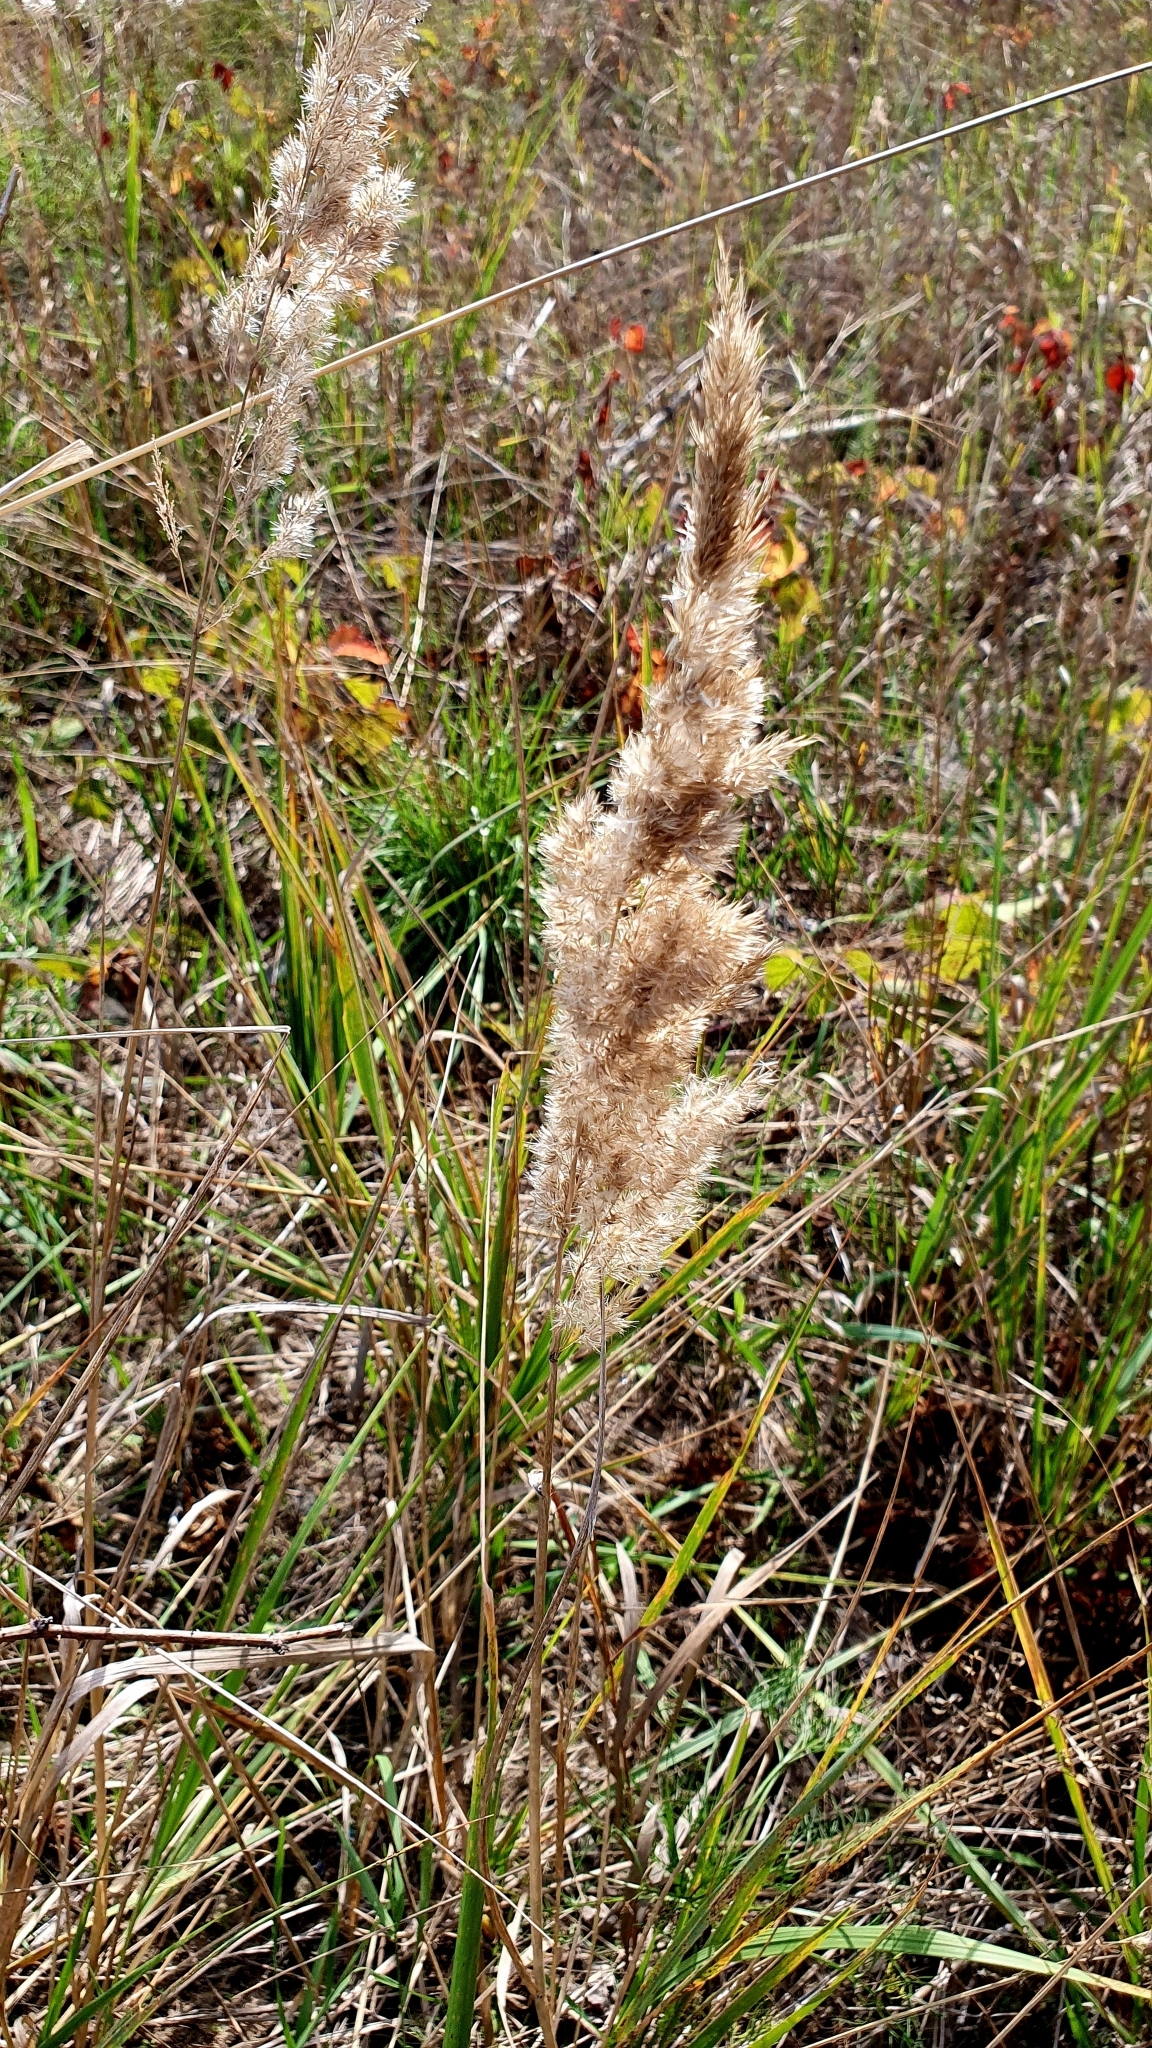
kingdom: Plantae
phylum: Tracheophyta
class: Liliopsida
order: Poales
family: Poaceae
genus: Calamagrostis
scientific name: Calamagrostis epigejos
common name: Wood small-reed
